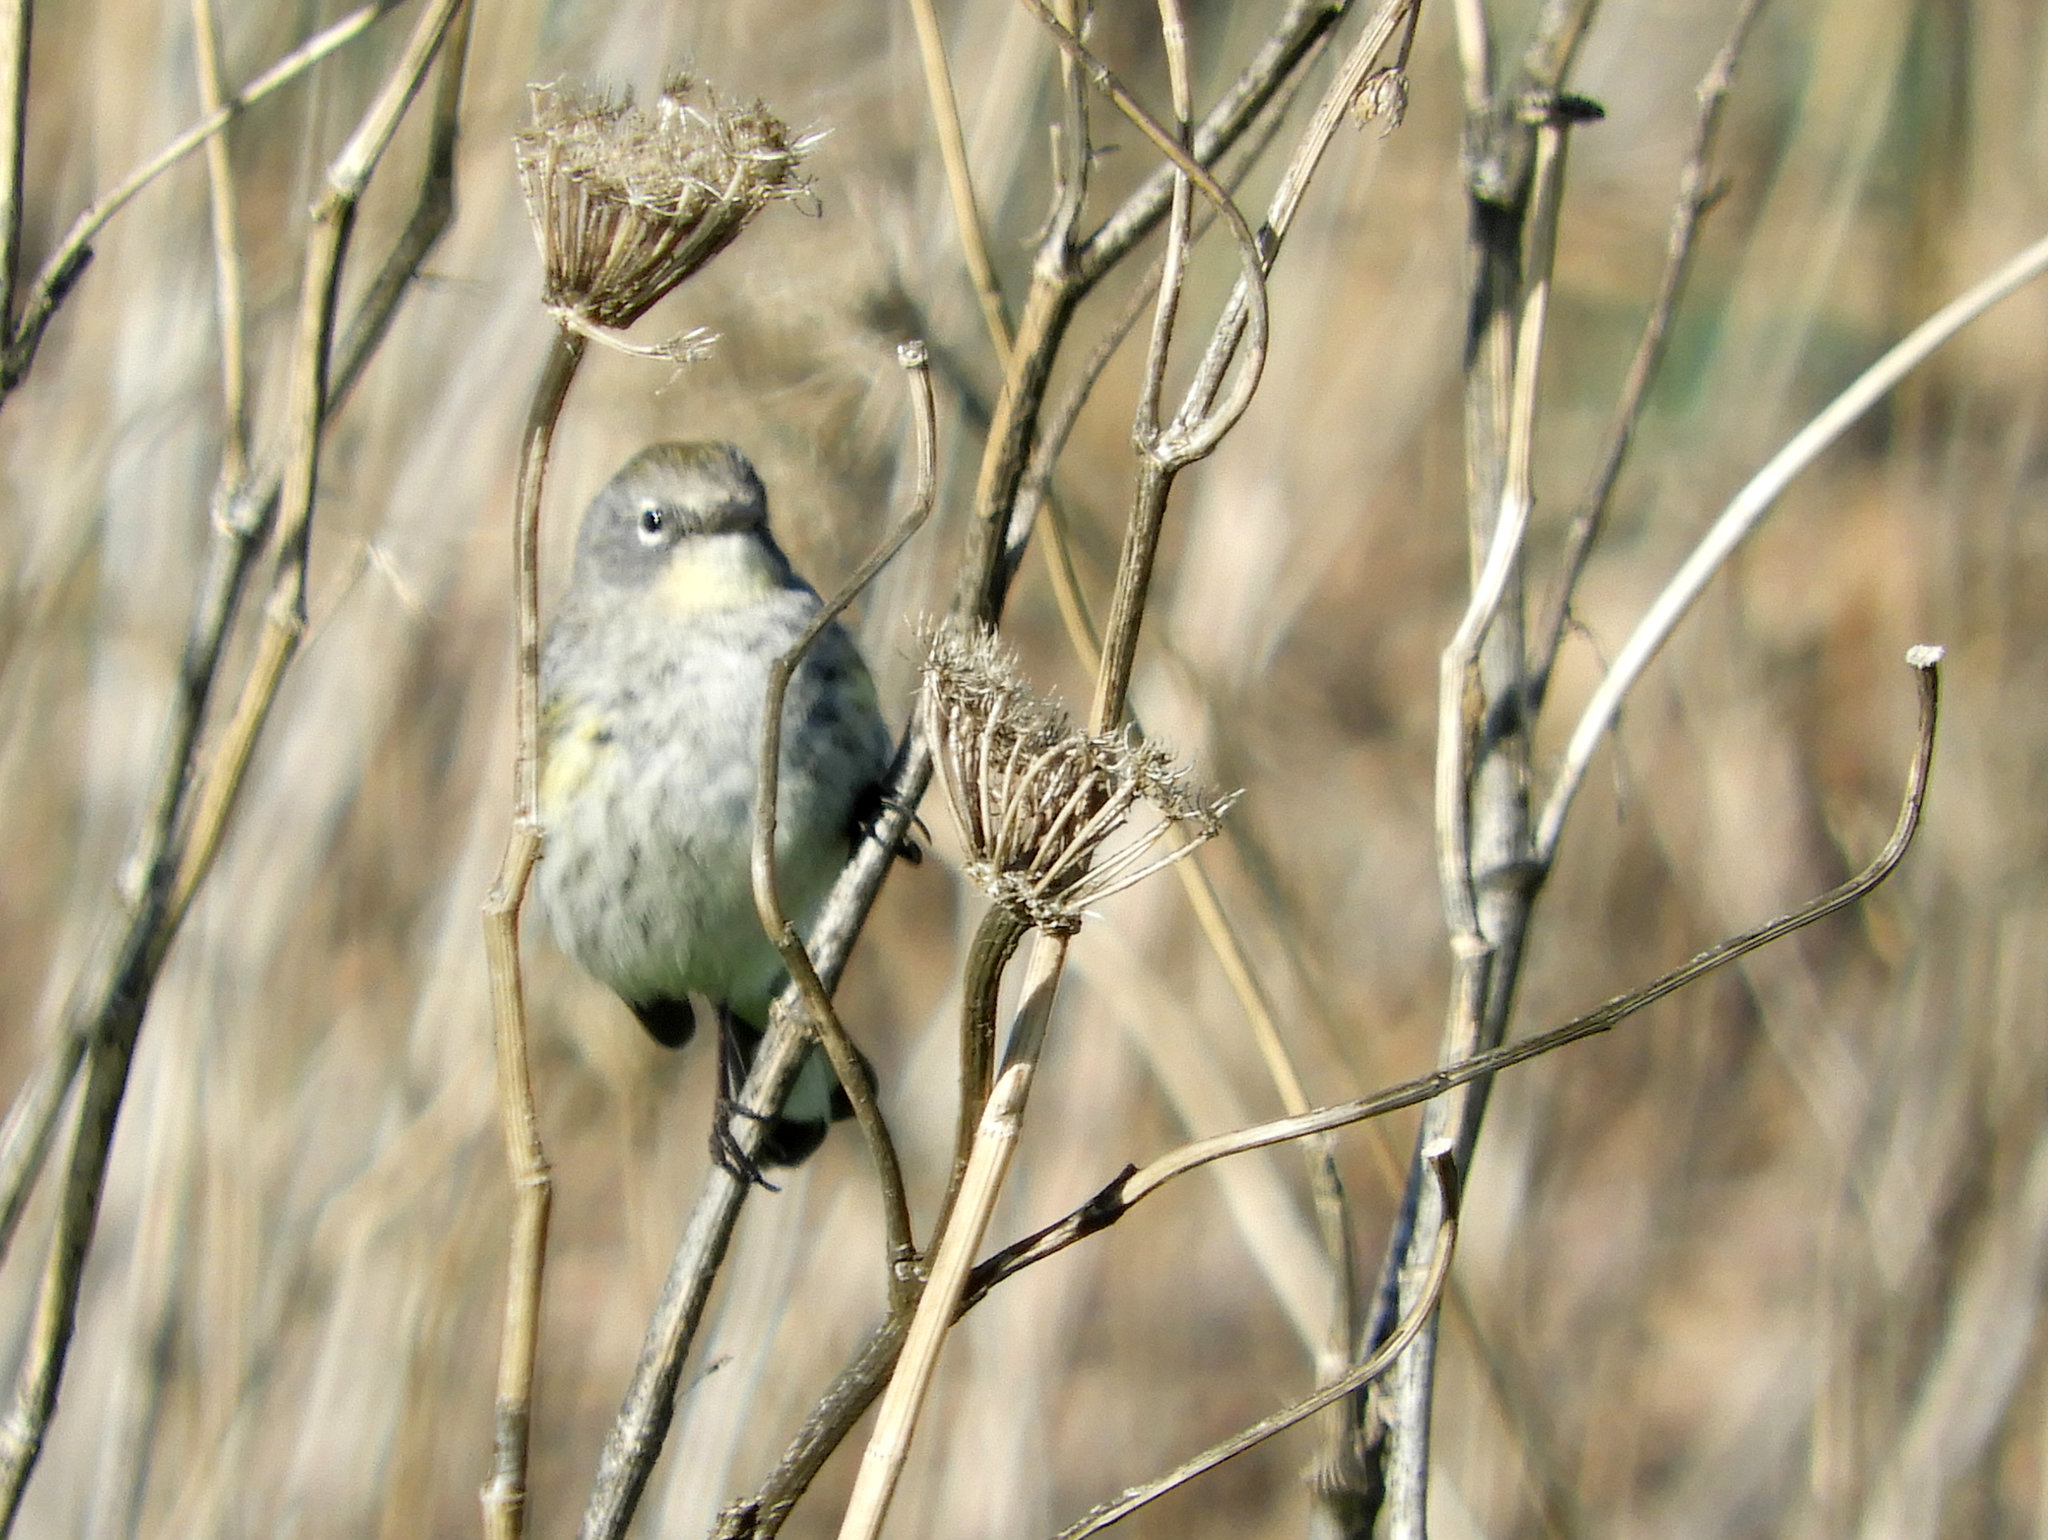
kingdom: Animalia
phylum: Chordata
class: Aves
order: Passeriformes
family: Parulidae
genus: Setophaga
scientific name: Setophaga coronata
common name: Myrtle warbler
